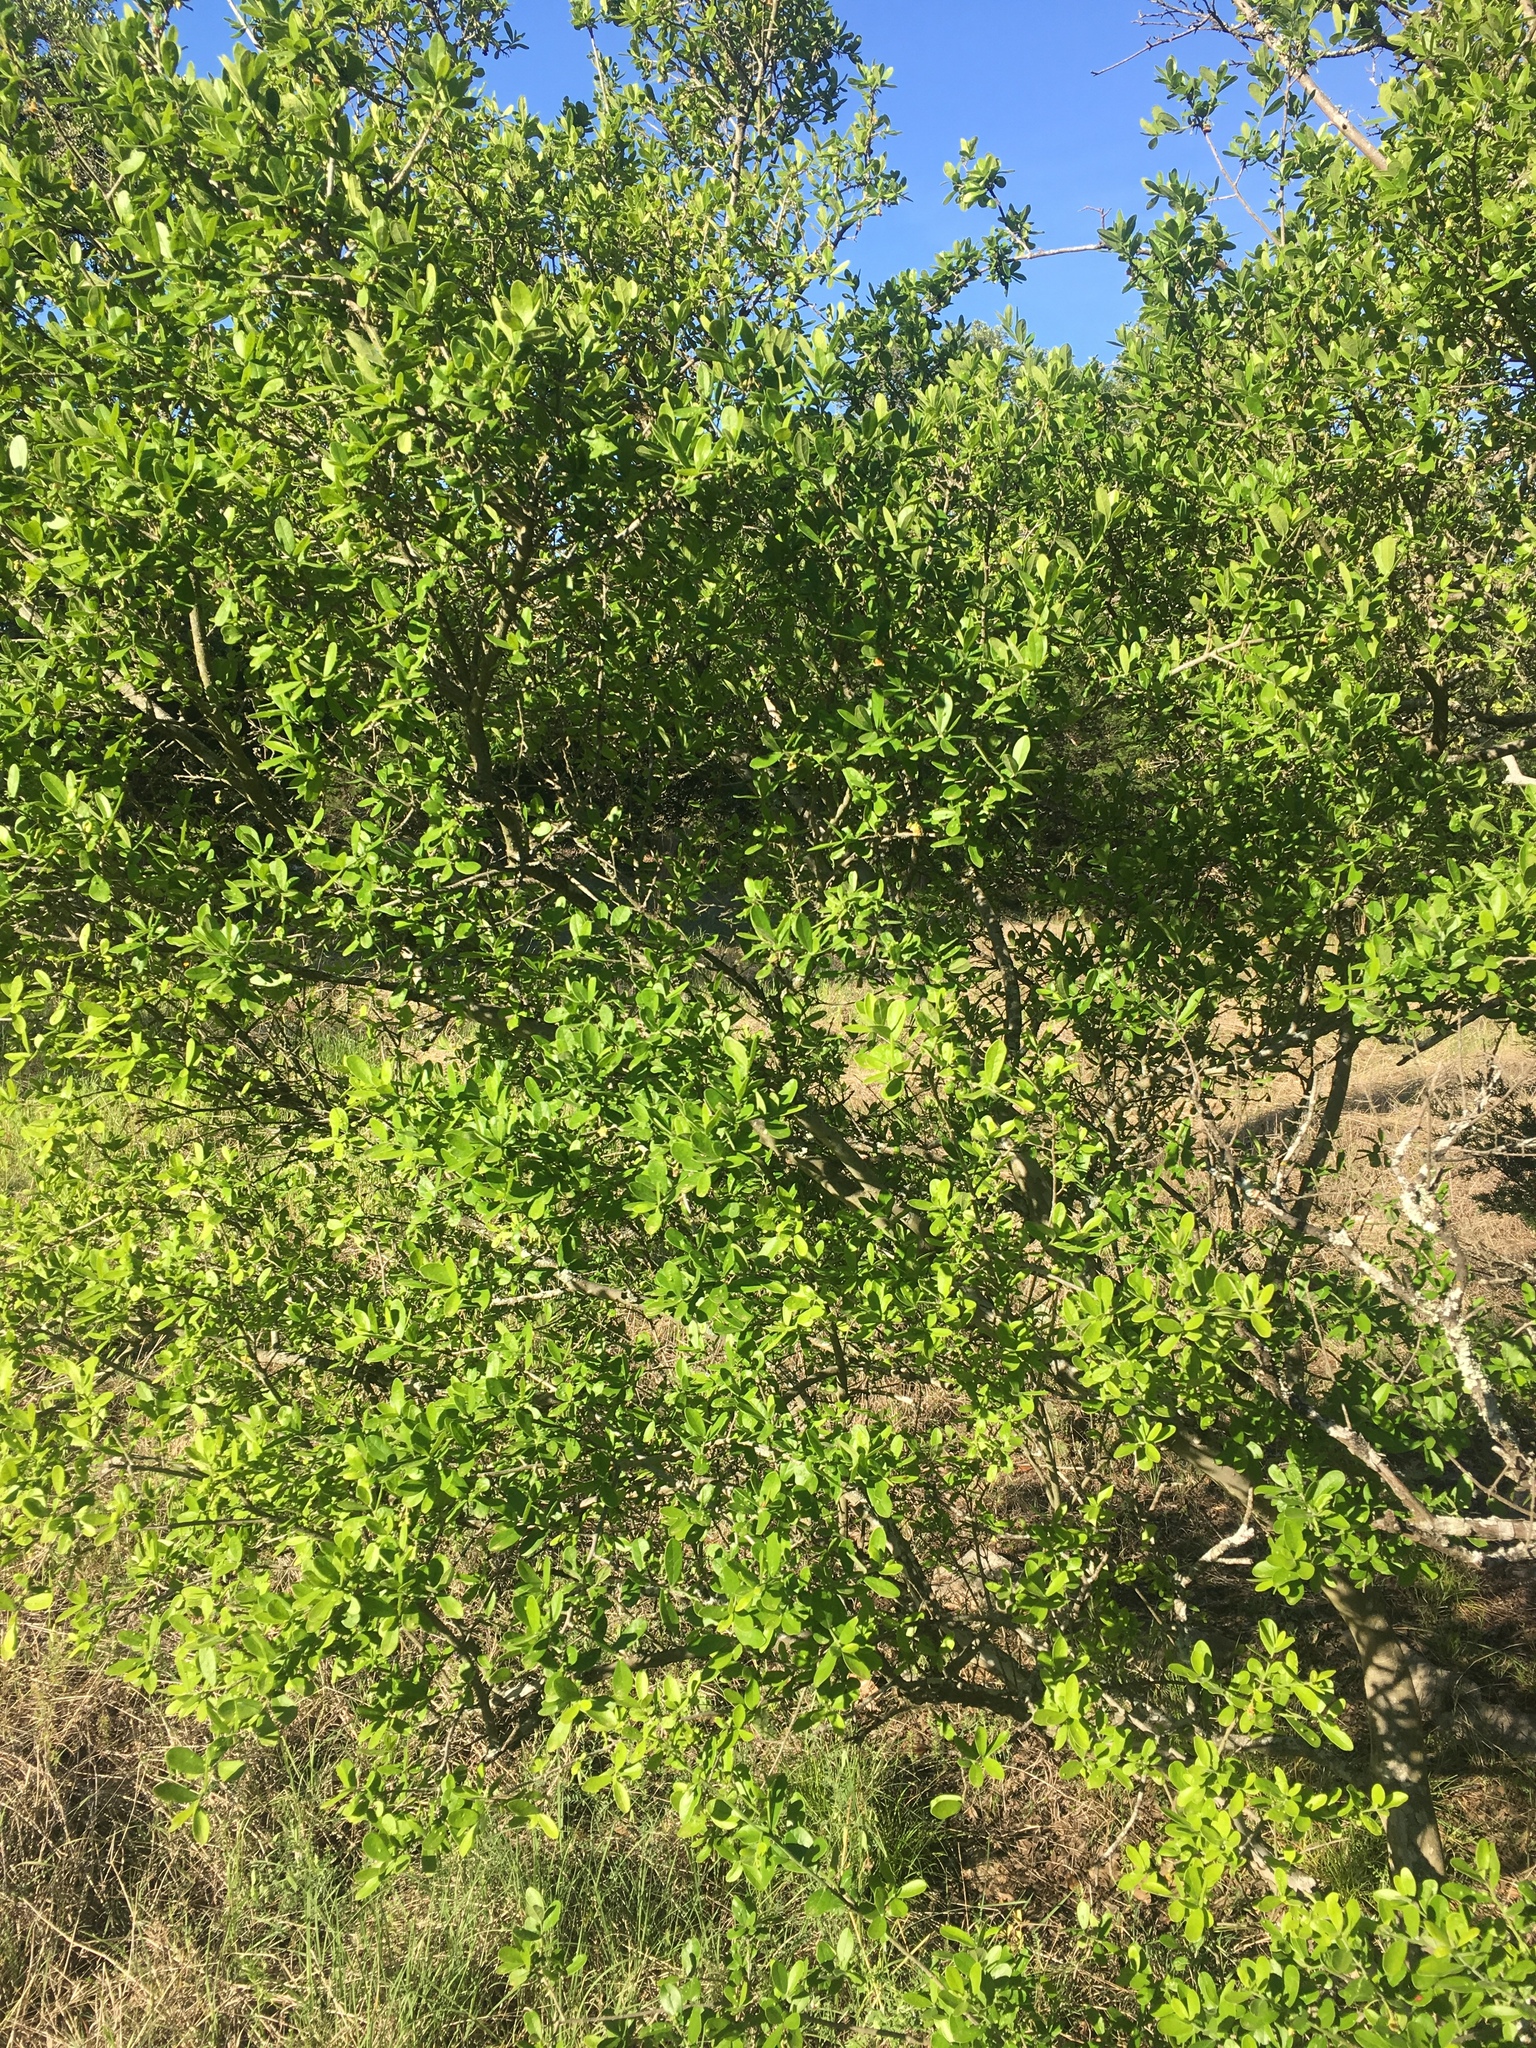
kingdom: Plantae
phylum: Tracheophyta
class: Magnoliopsida
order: Ericales
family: Ebenaceae
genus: Diospyros
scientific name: Diospyros texana
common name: Texas persimmon
